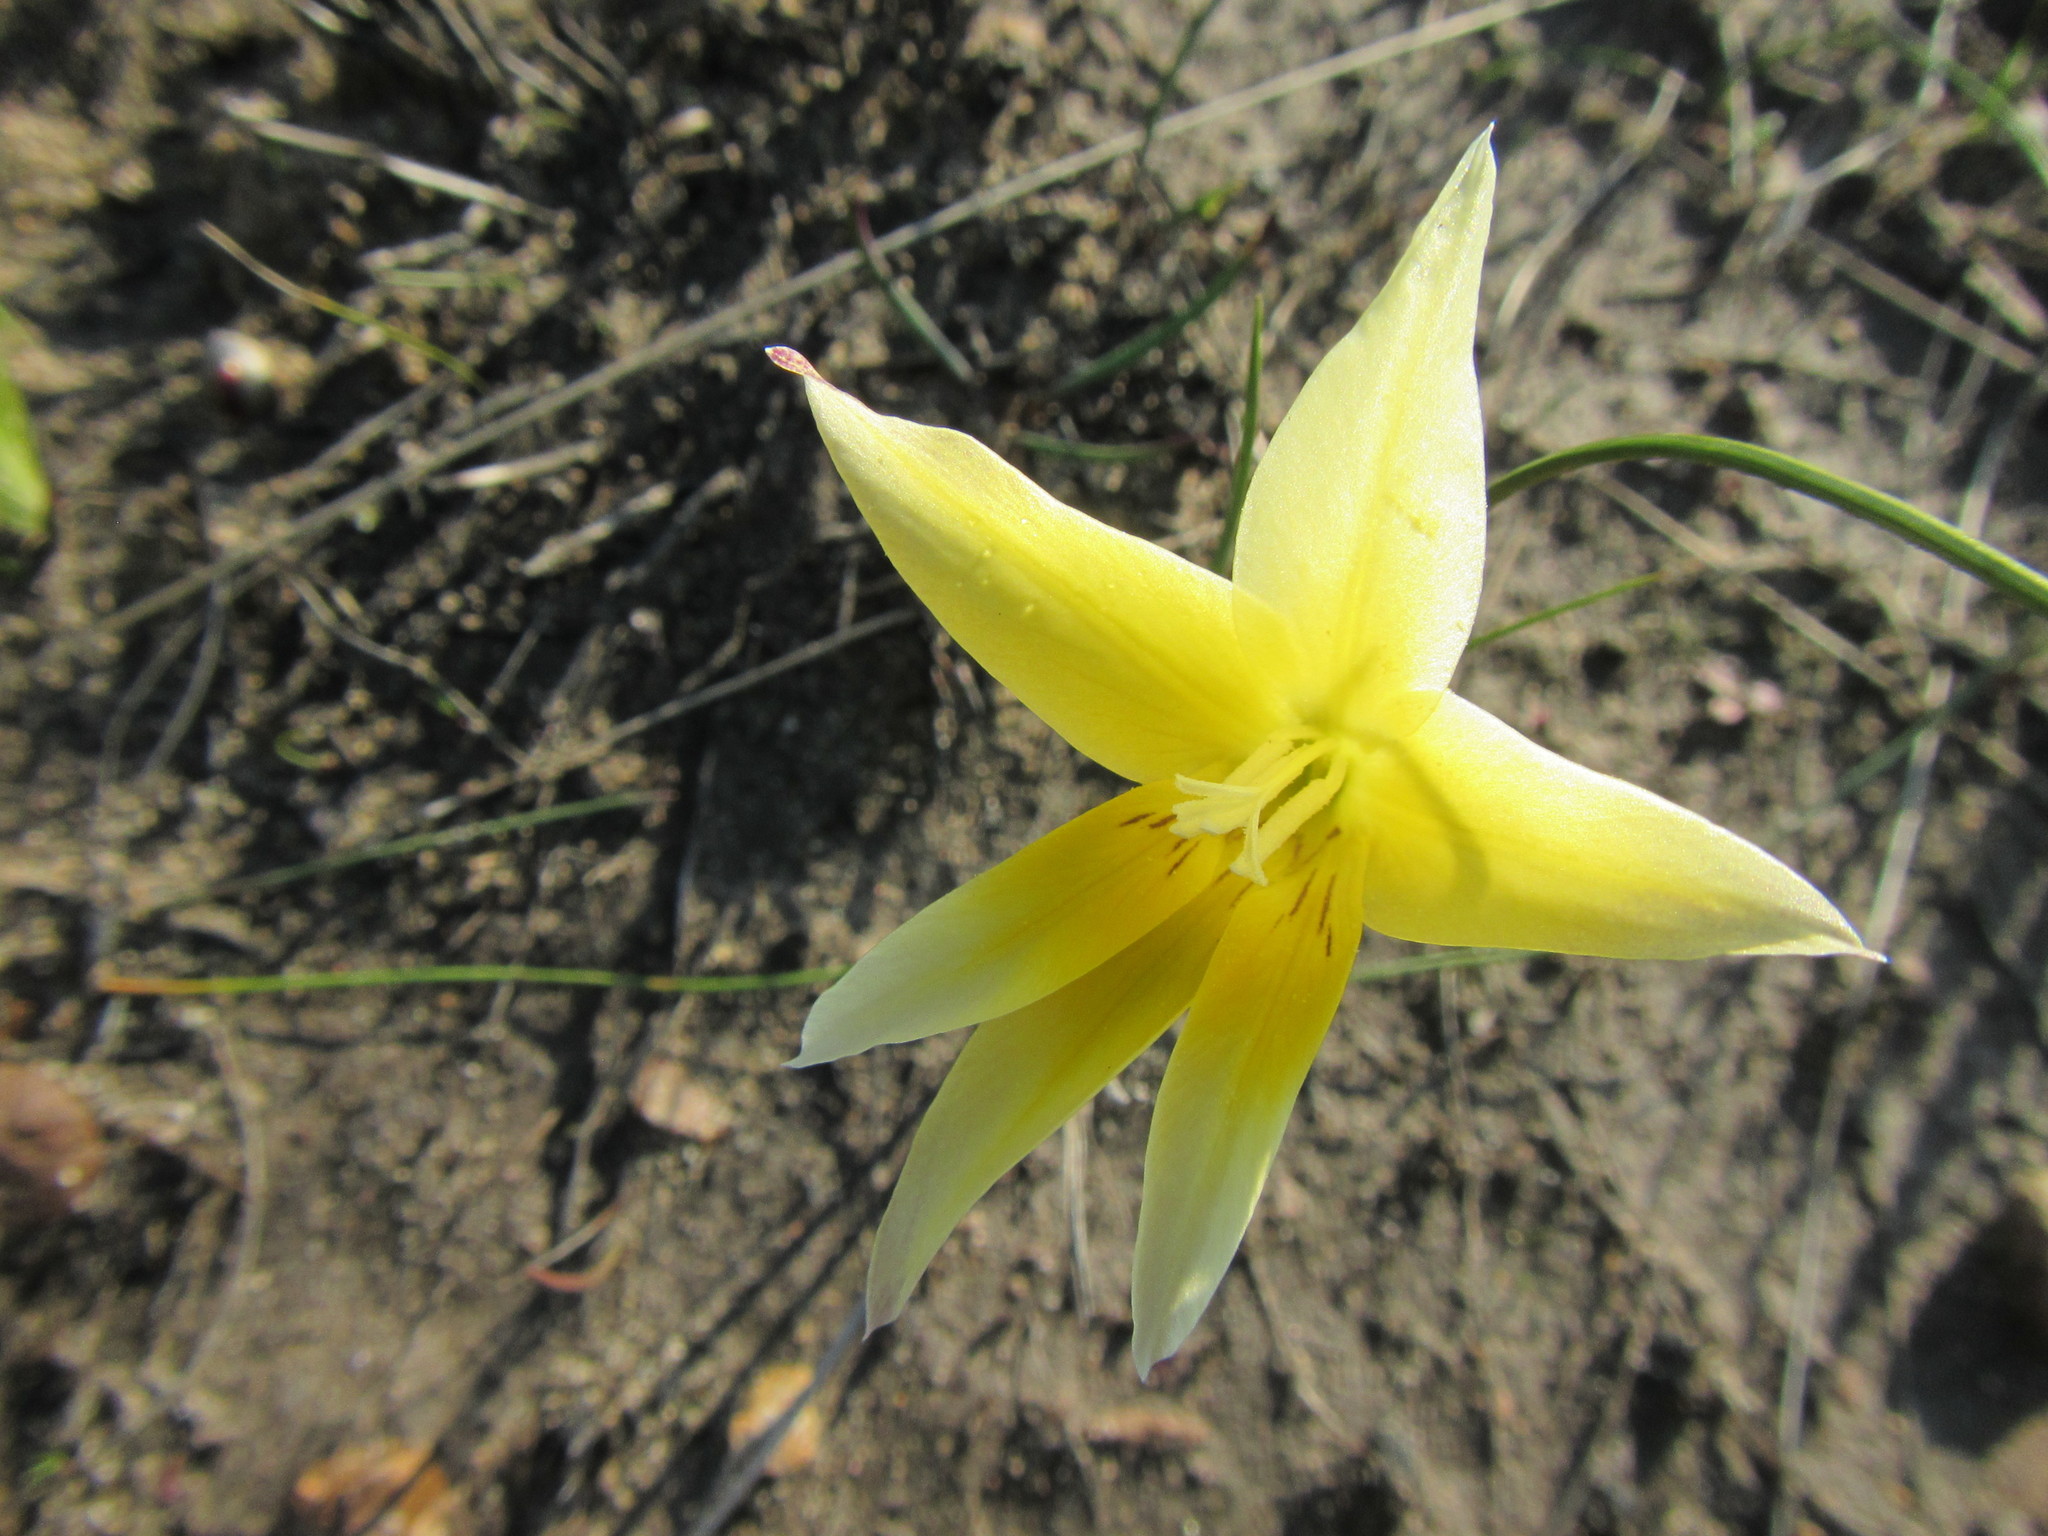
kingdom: Plantae
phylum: Tracheophyta
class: Liliopsida
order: Asparagales
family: Iridaceae
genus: Gladiolus
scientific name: Gladiolus trichonemifolius
